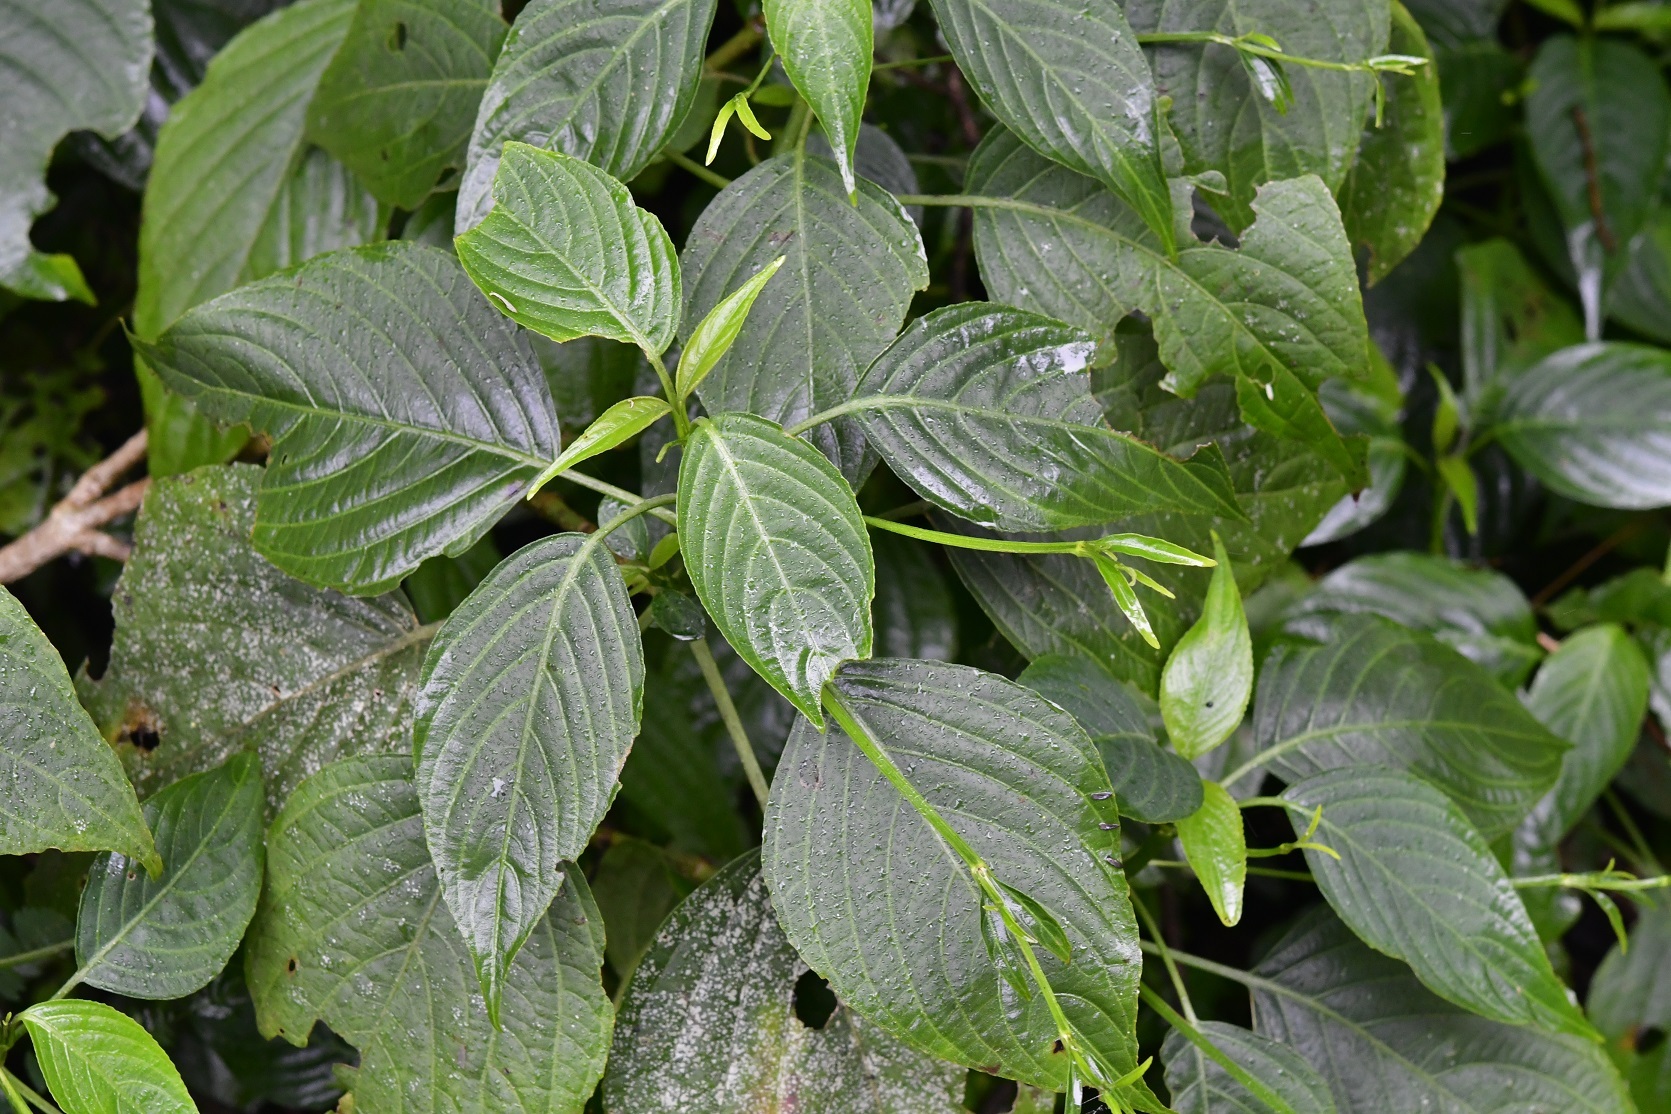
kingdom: Plantae
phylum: Tracheophyta
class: Magnoliopsida
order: Lamiales
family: Acanthaceae
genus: Ruellia
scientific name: Ruellia breedlovei
